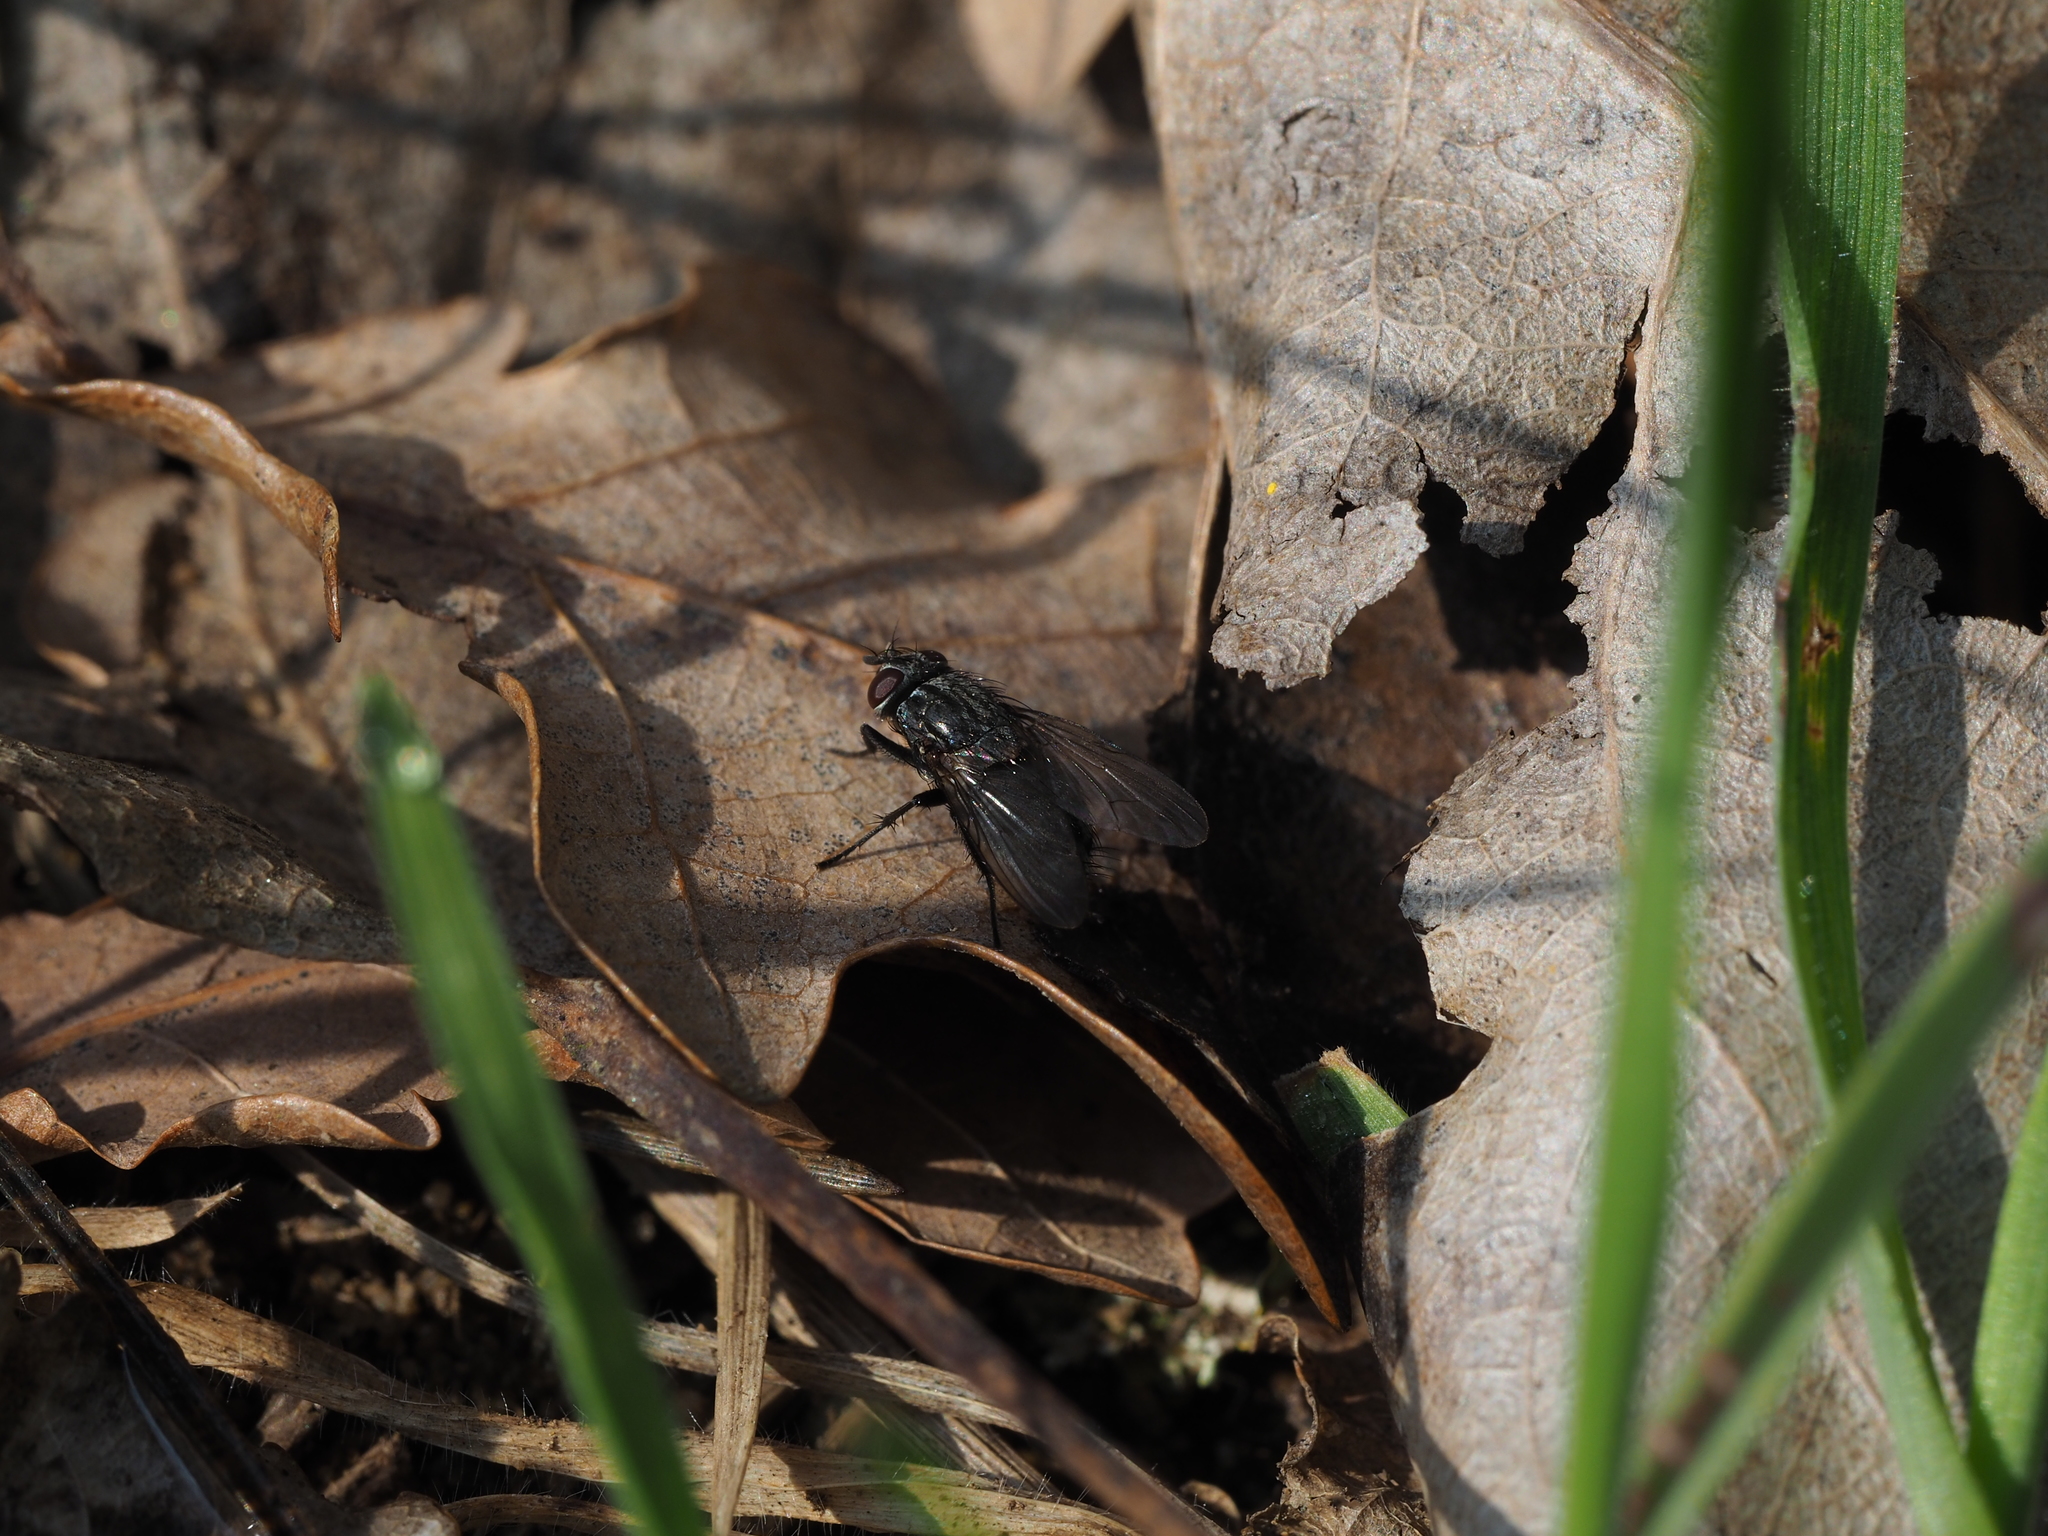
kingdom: Animalia
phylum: Arthropoda
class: Insecta
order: Diptera
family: Muscidae
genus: Muscina
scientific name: Muscina levida
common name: House fly
